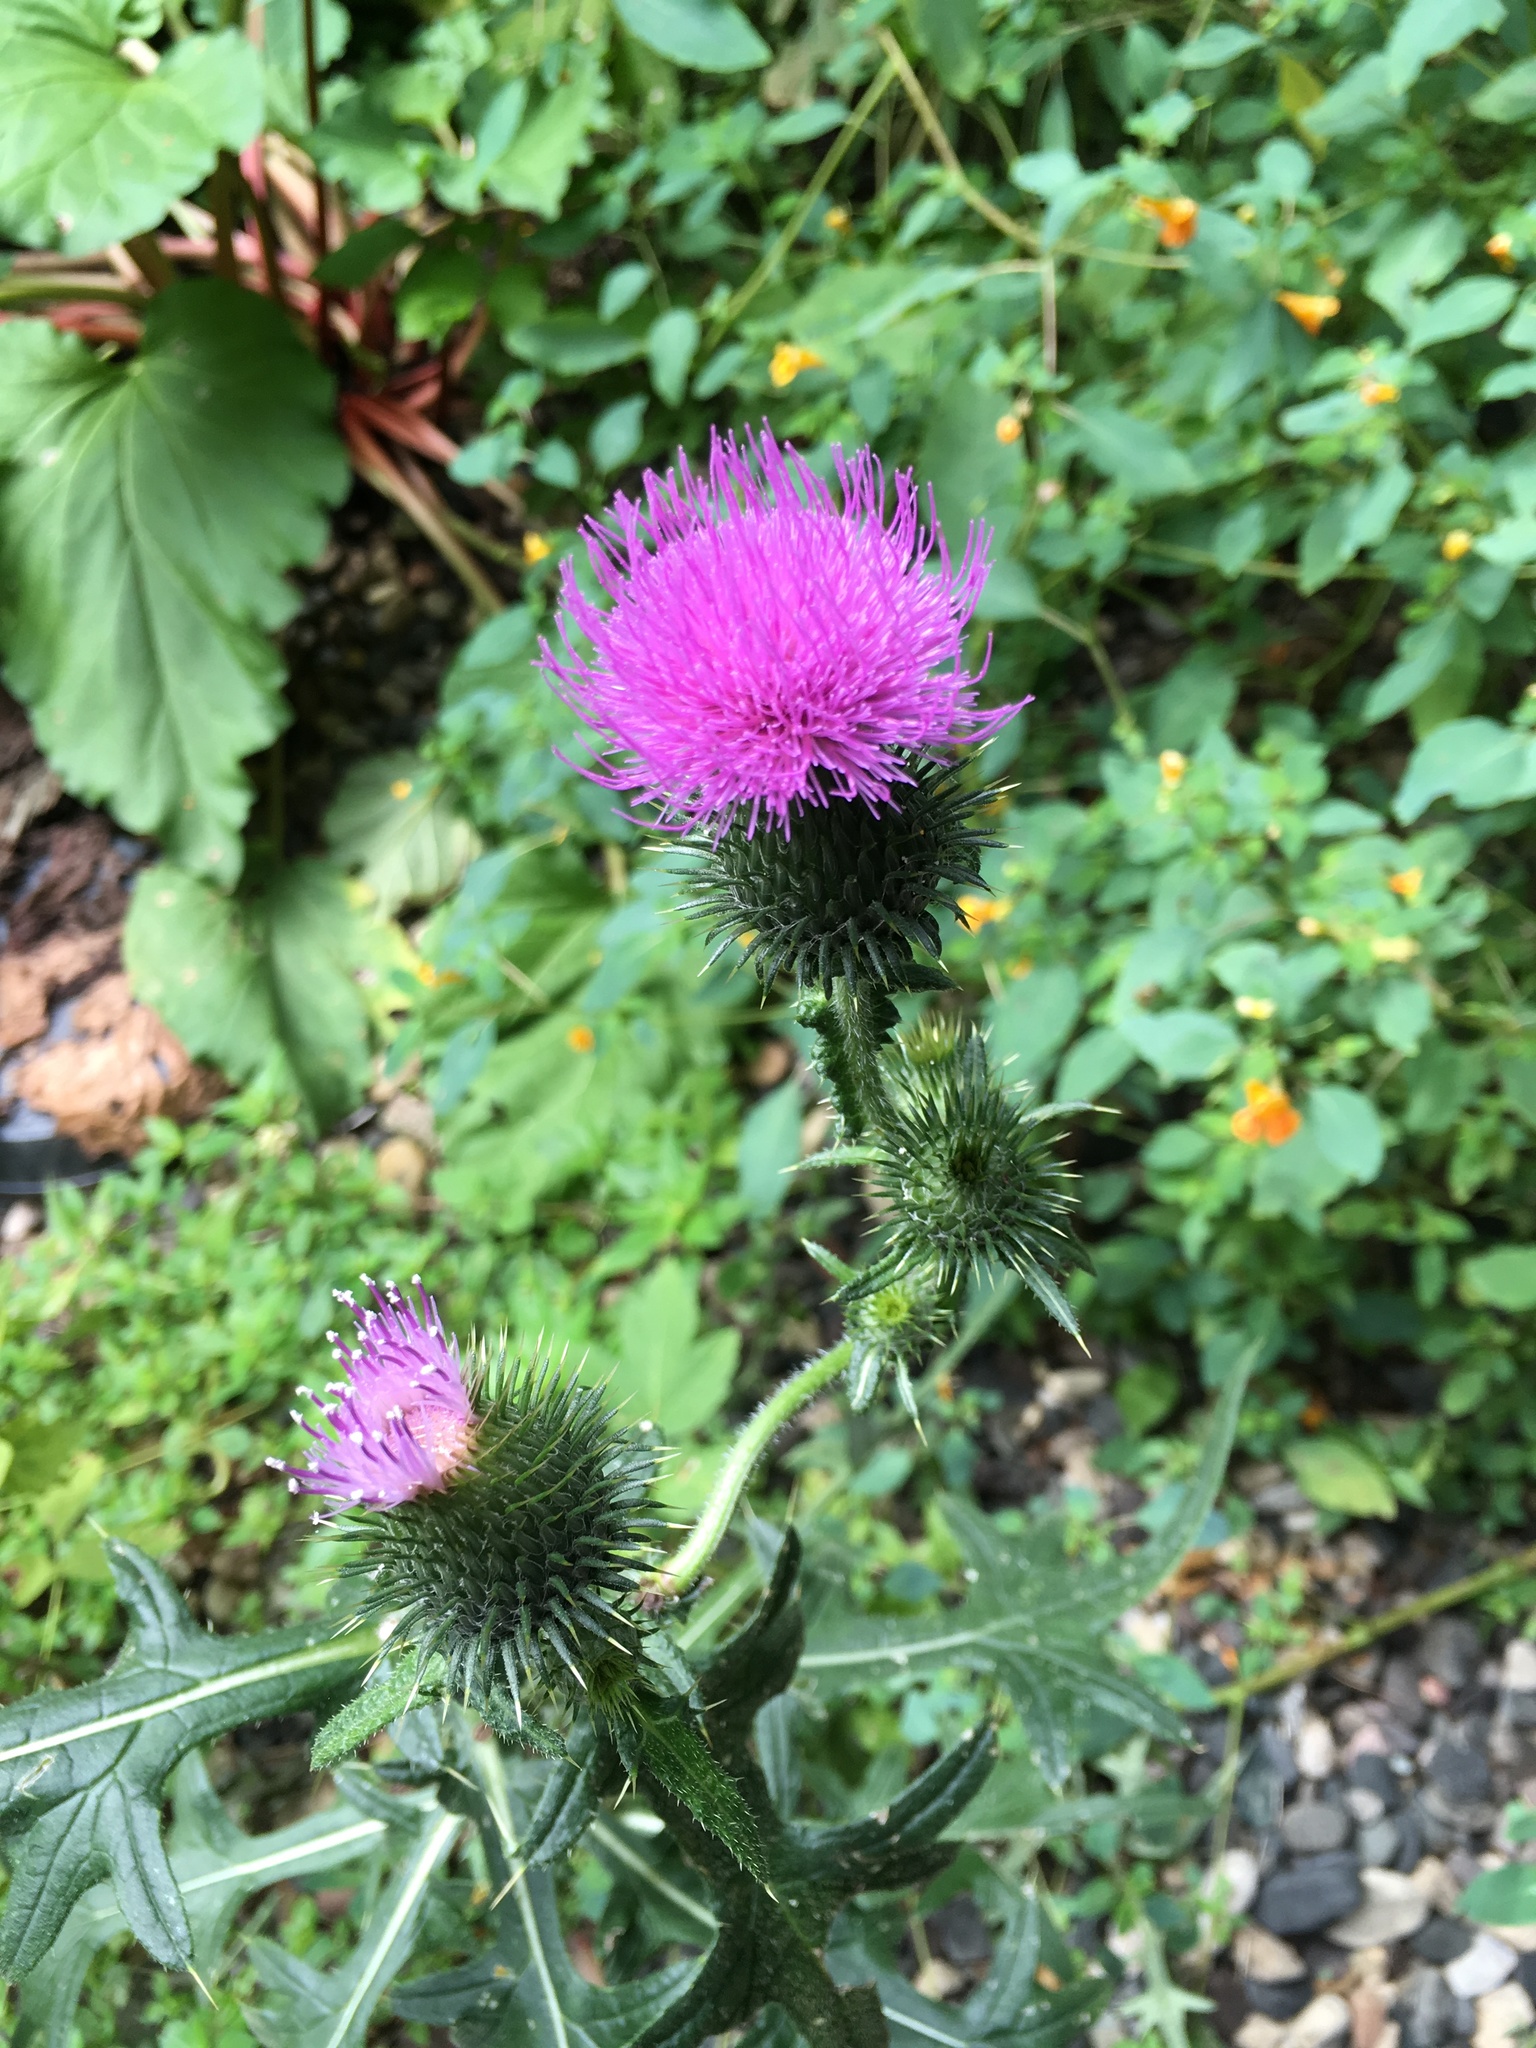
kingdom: Plantae
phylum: Tracheophyta
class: Magnoliopsida
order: Asterales
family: Asteraceae
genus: Cirsium
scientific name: Cirsium vulgare
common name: Bull thistle
